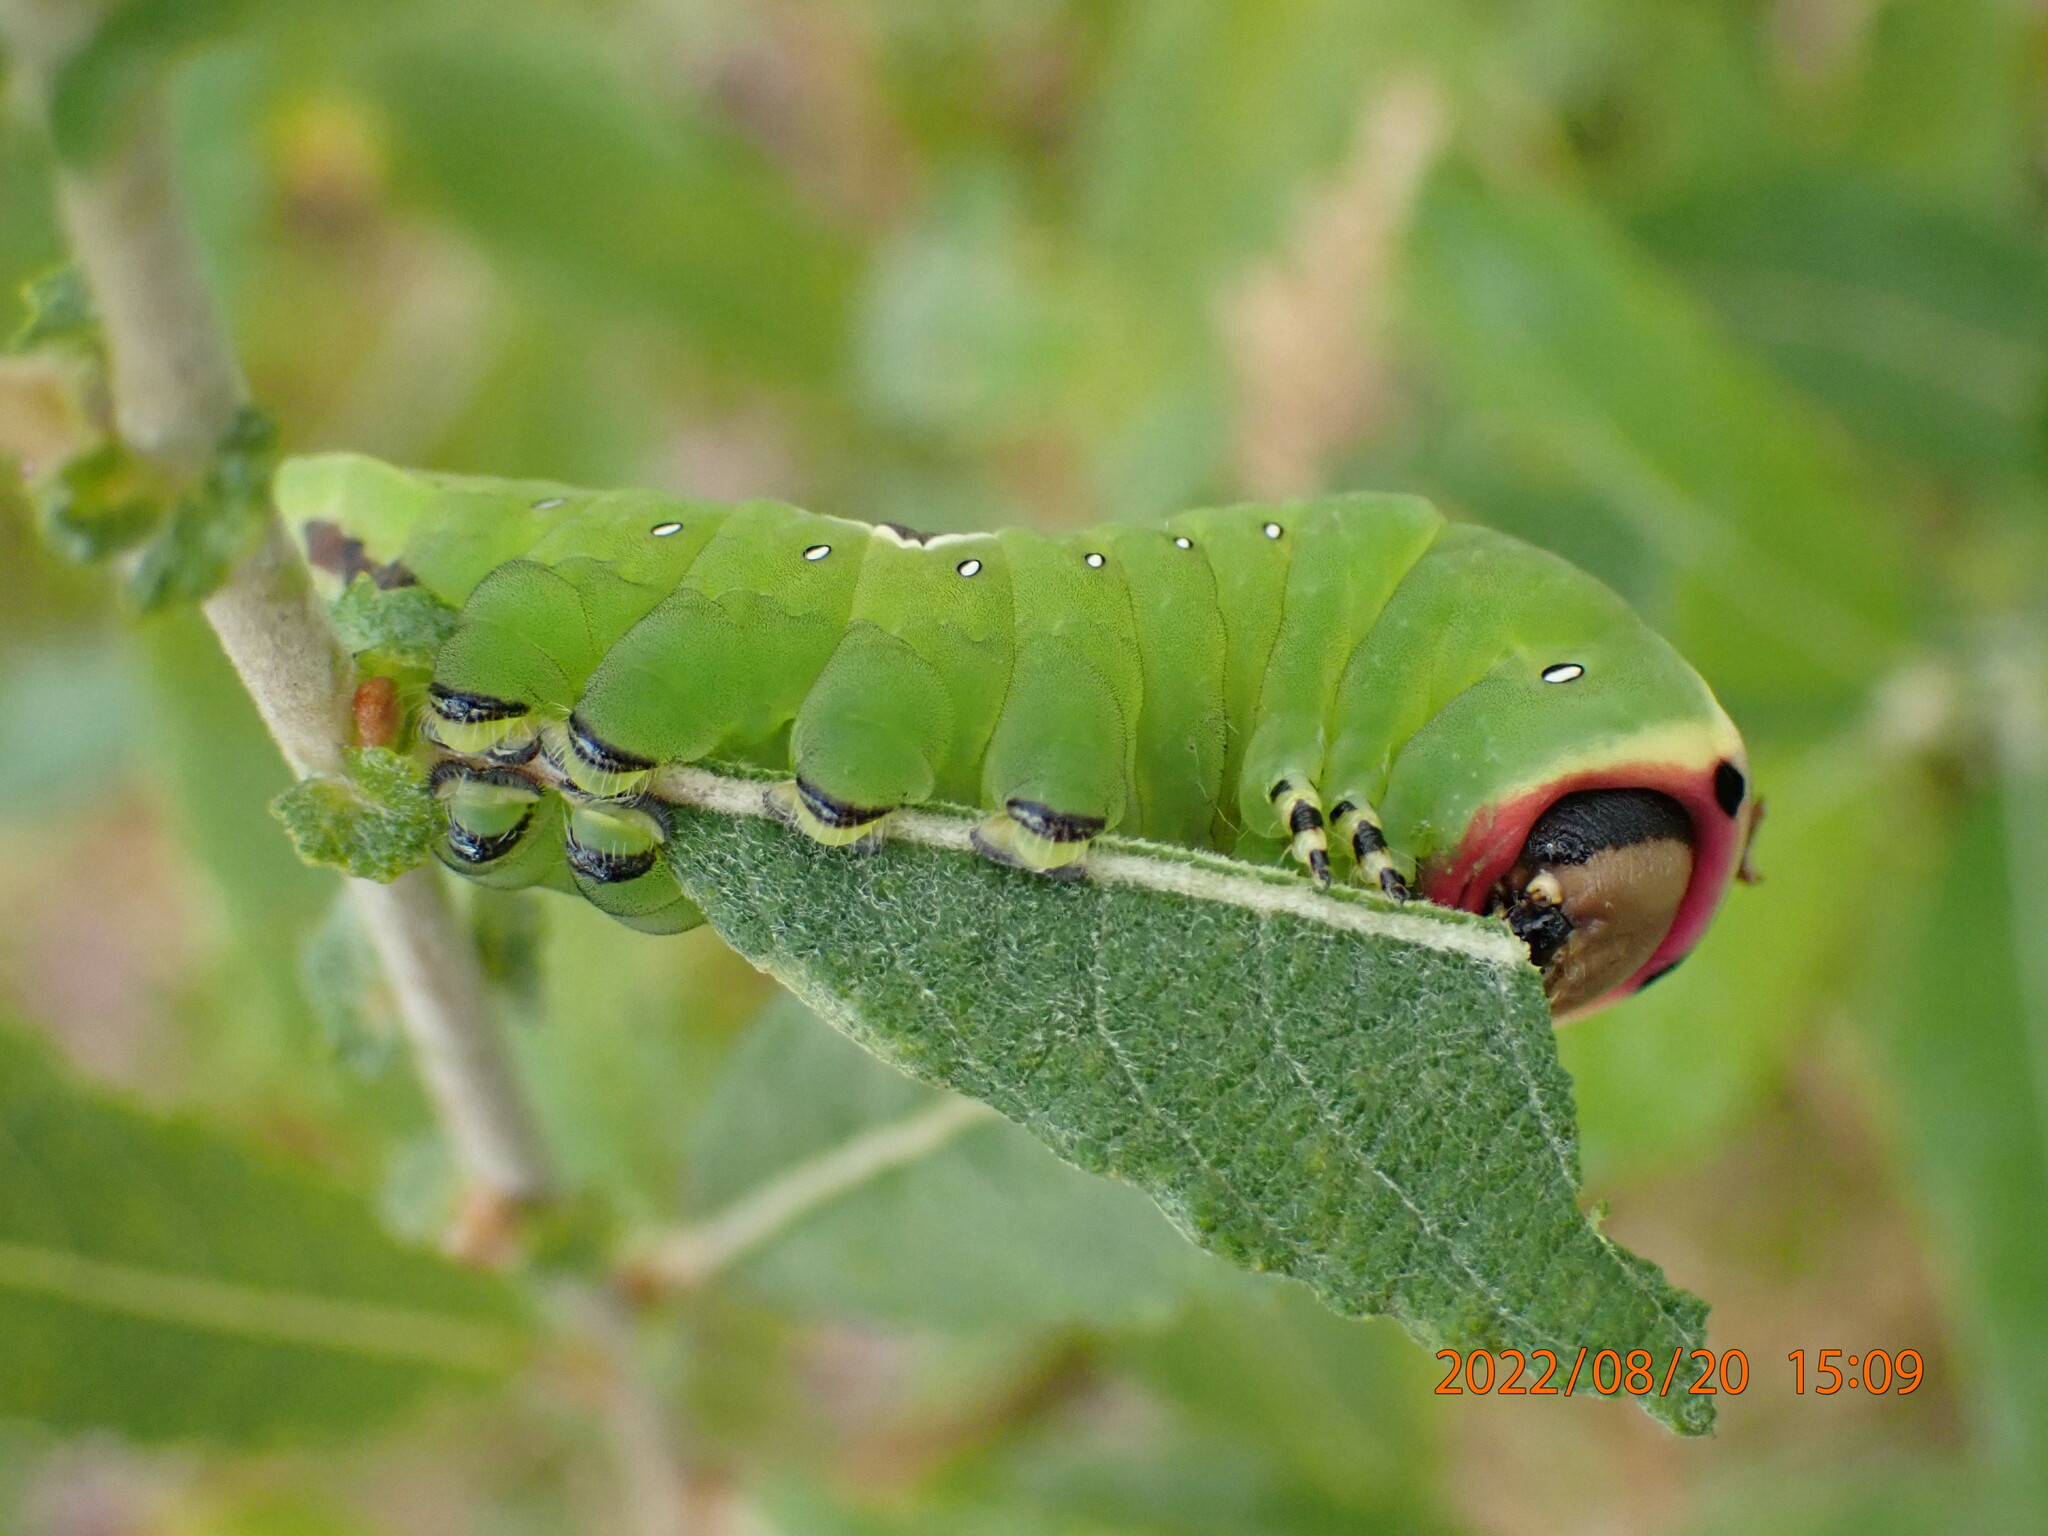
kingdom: Animalia
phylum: Arthropoda
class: Insecta
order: Lepidoptera
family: Notodontidae
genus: Cerura
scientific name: Cerura vinula
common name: Puss moth
